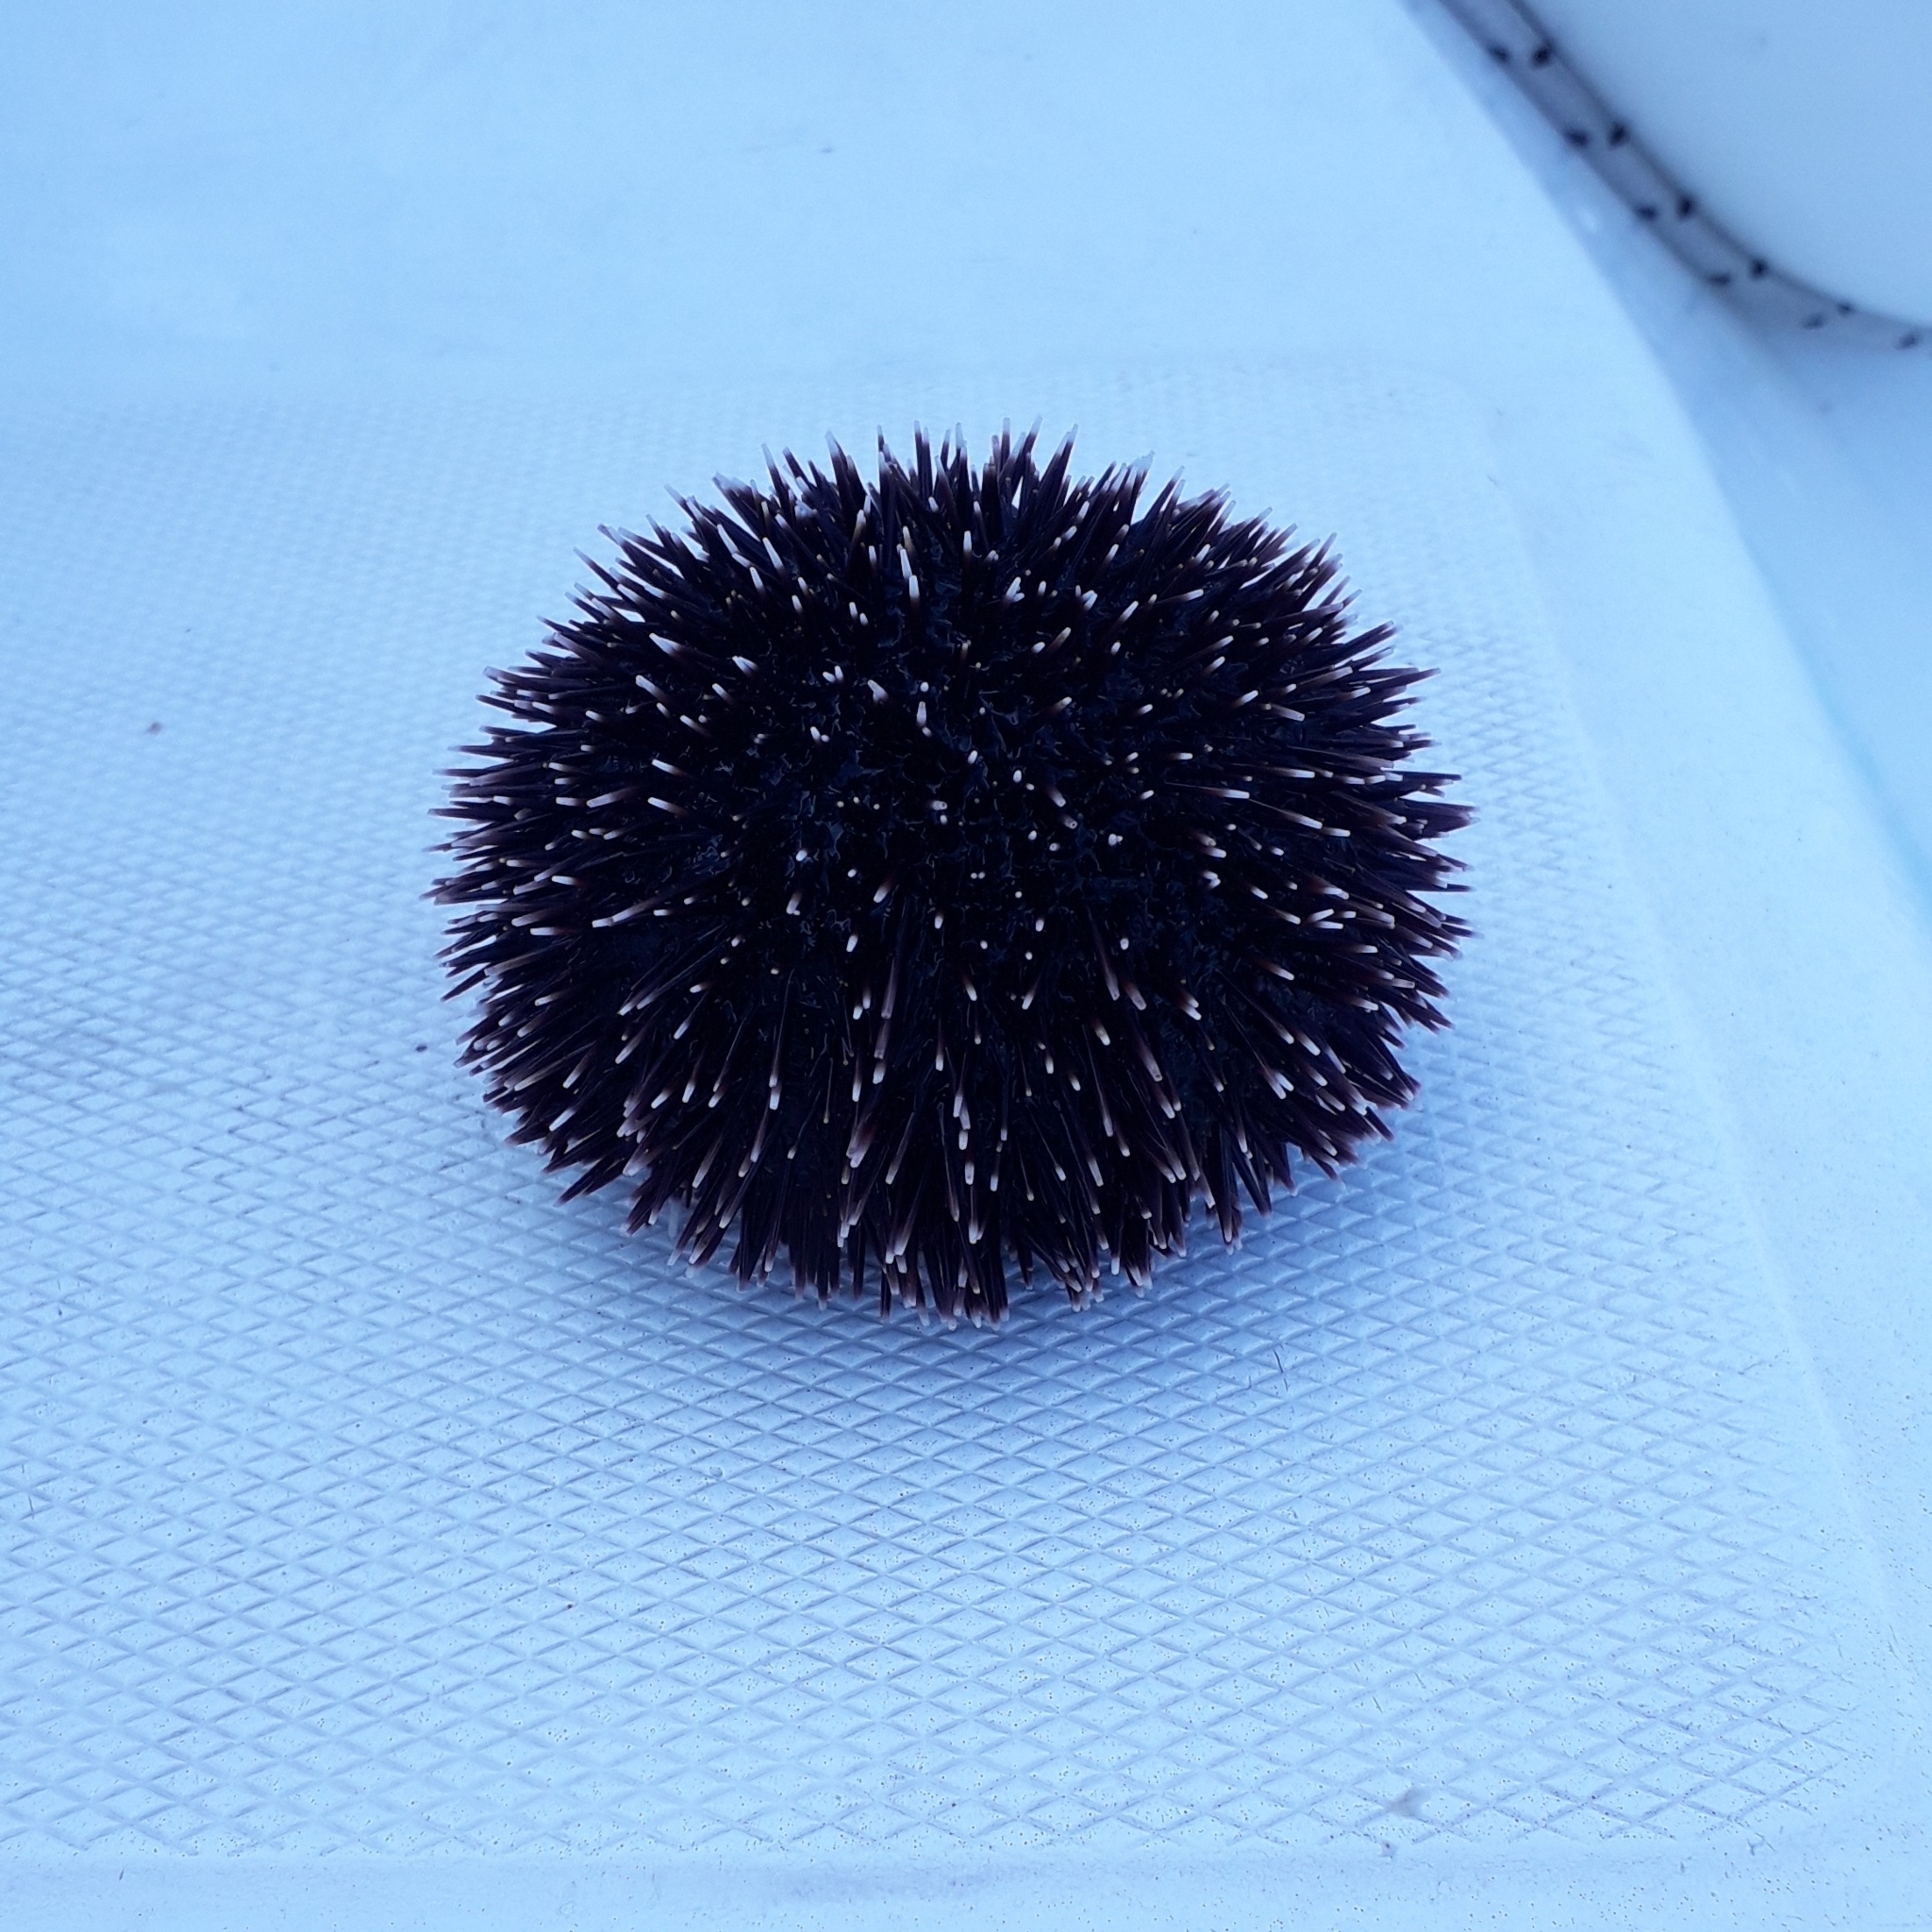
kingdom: Animalia
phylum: Echinodermata
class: Echinoidea
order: Camarodonta
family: Toxopneustidae
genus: Sphaerechinus
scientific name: Sphaerechinus granularis
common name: Violet sea urchin
